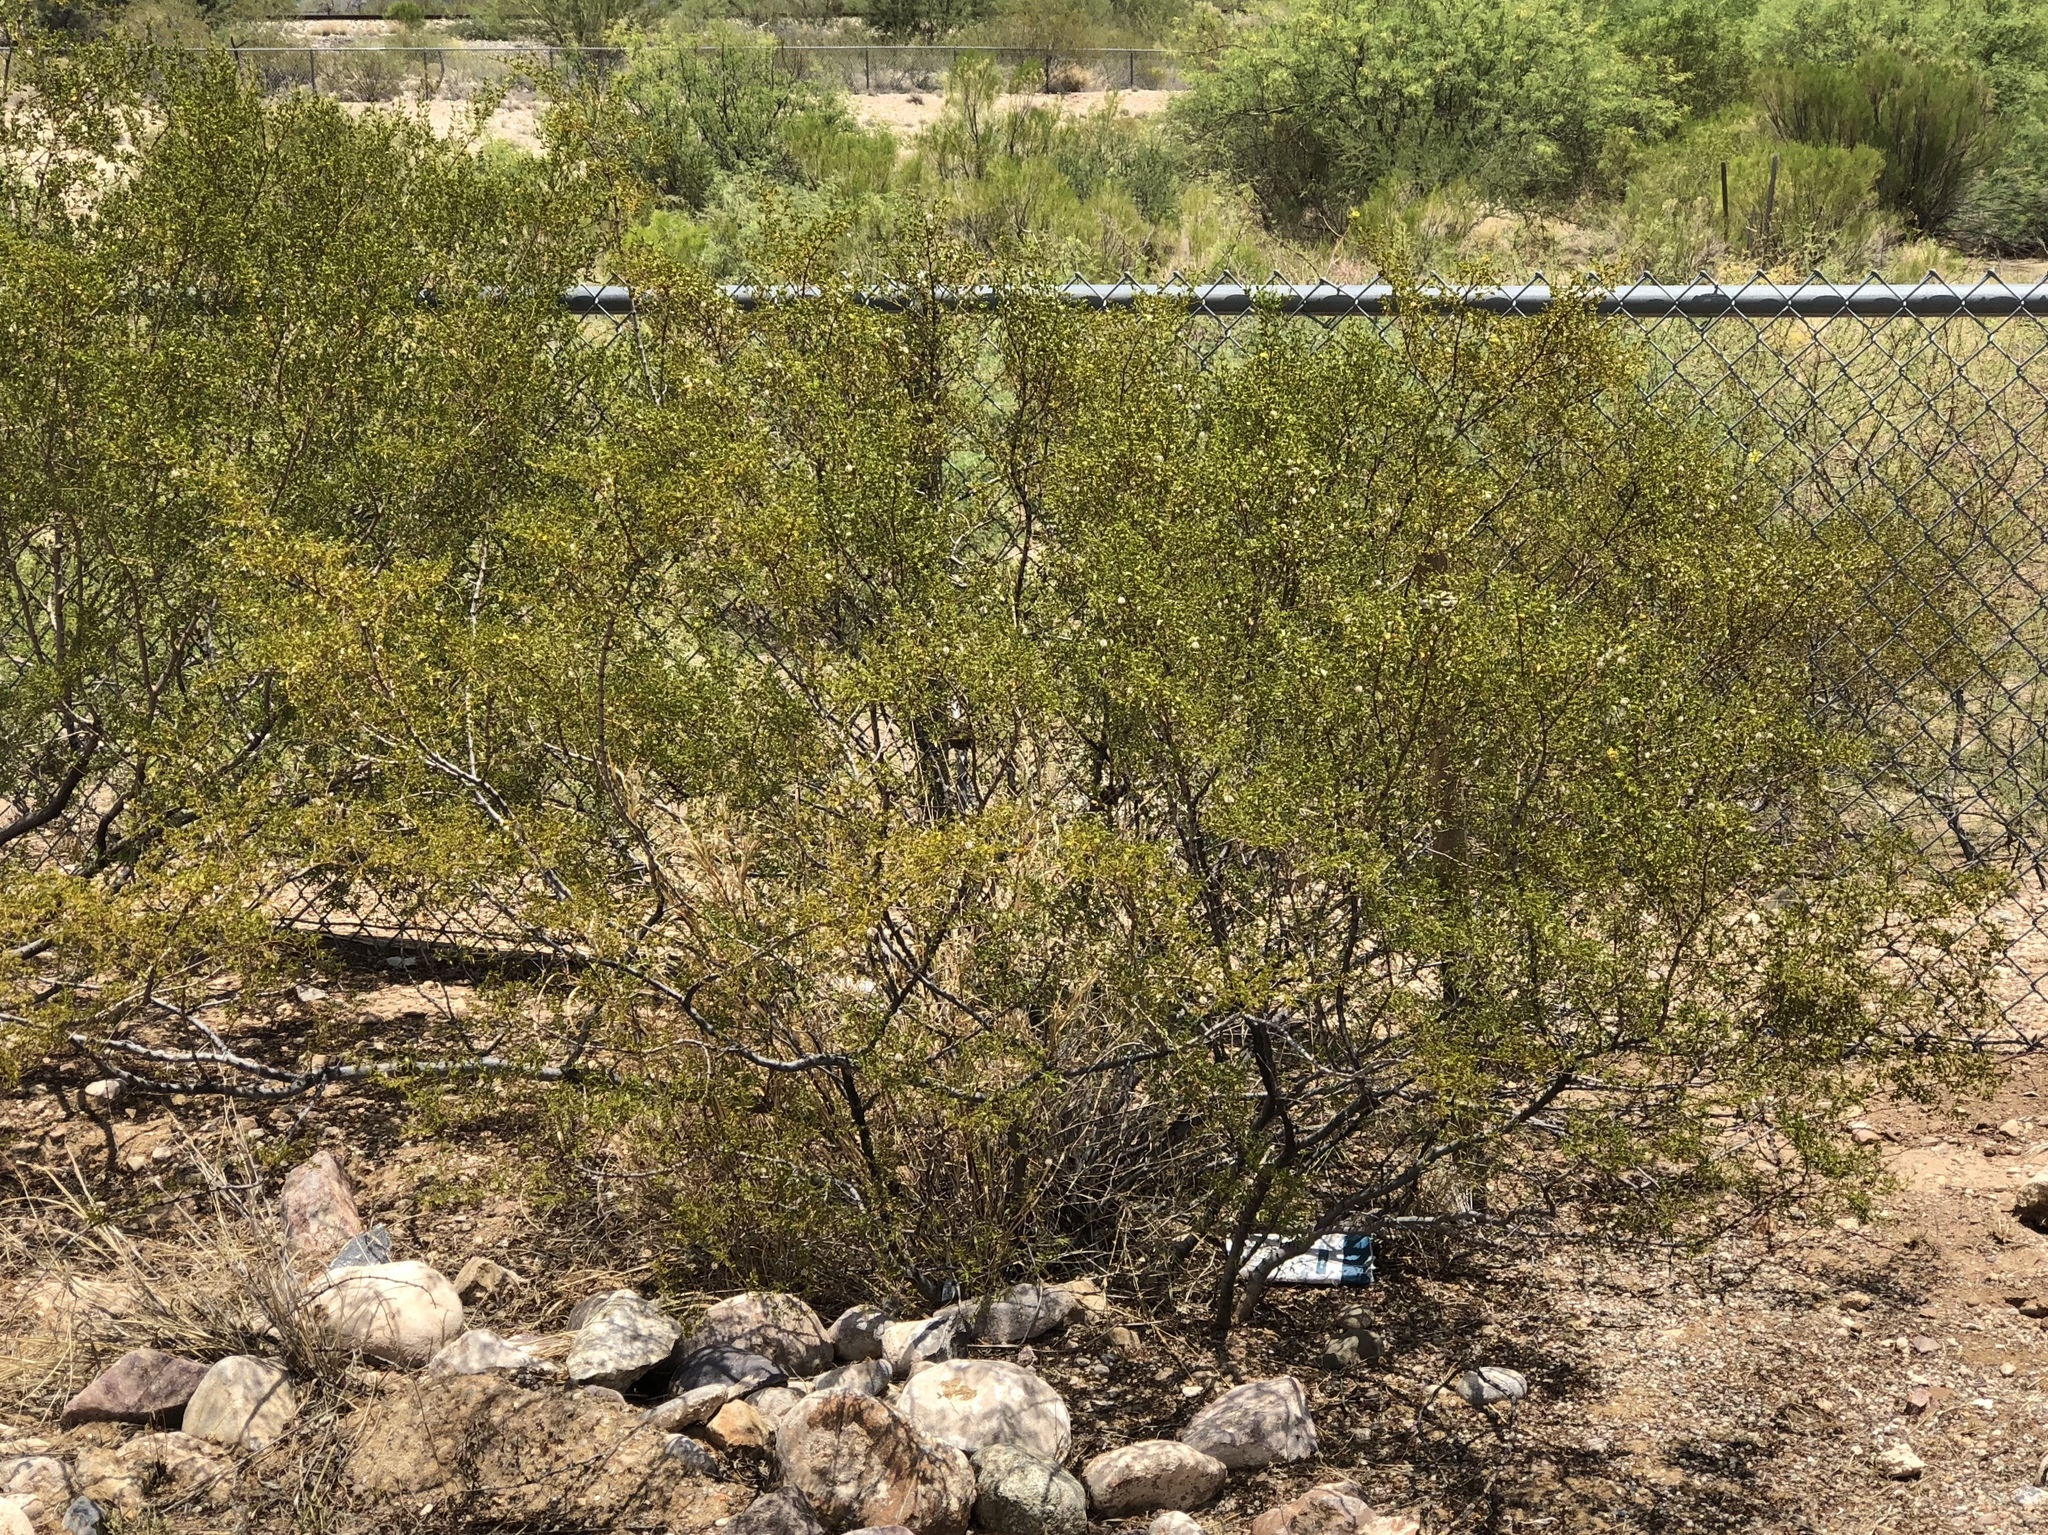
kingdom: Plantae
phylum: Tracheophyta
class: Magnoliopsida
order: Zygophyllales
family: Zygophyllaceae
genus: Larrea
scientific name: Larrea tridentata
